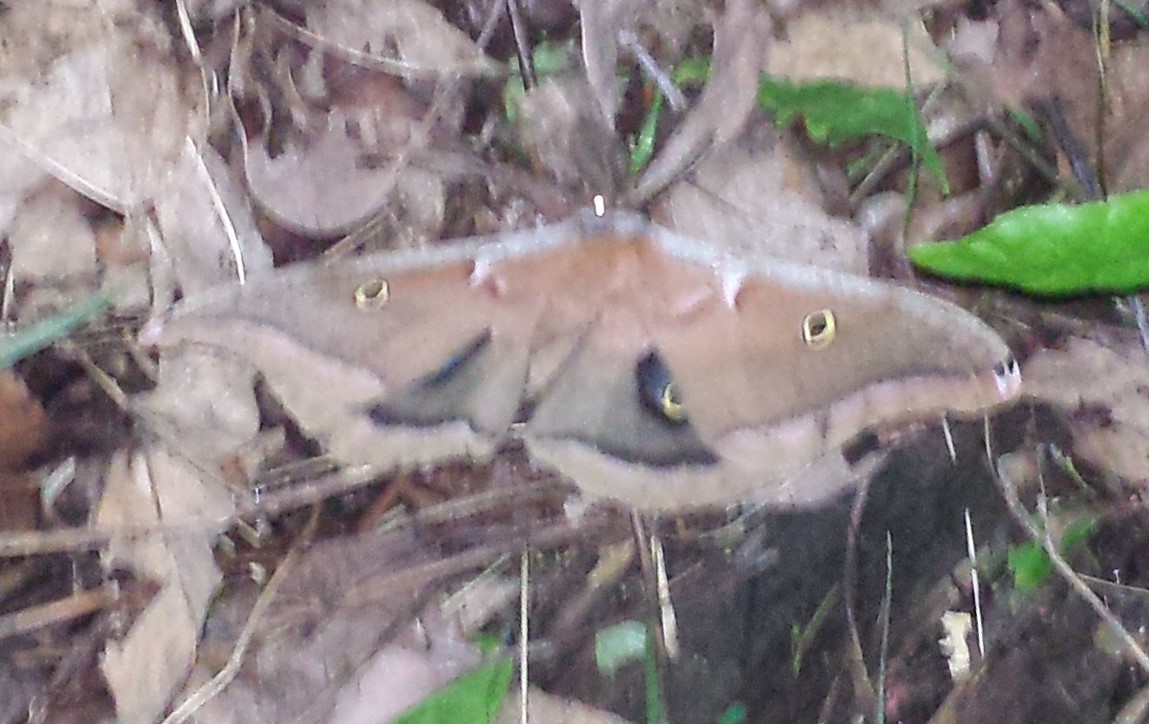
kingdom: Animalia
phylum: Arthropoda
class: Insecta
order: Lepidoptera
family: Saturniidae
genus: Antheraea
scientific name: Antheraea polyphemus
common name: Polyphemus moth
